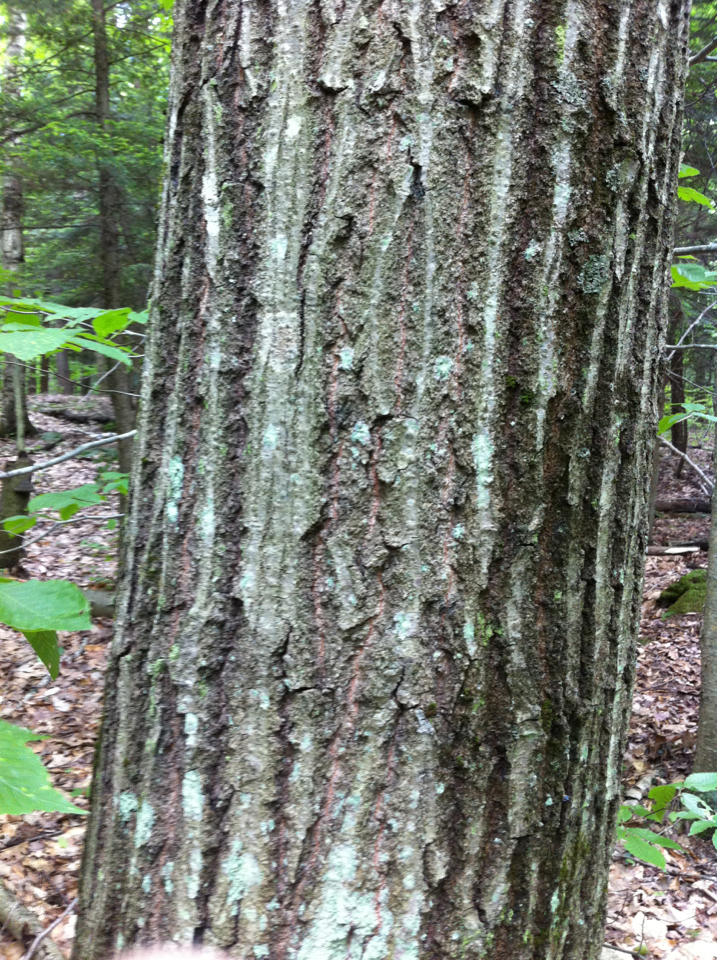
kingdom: Plantae
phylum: Tracheophyta
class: Magnoliopsida
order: Fagales
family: Fagaceae
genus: Quercus
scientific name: Quercus rubra
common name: Red oak
